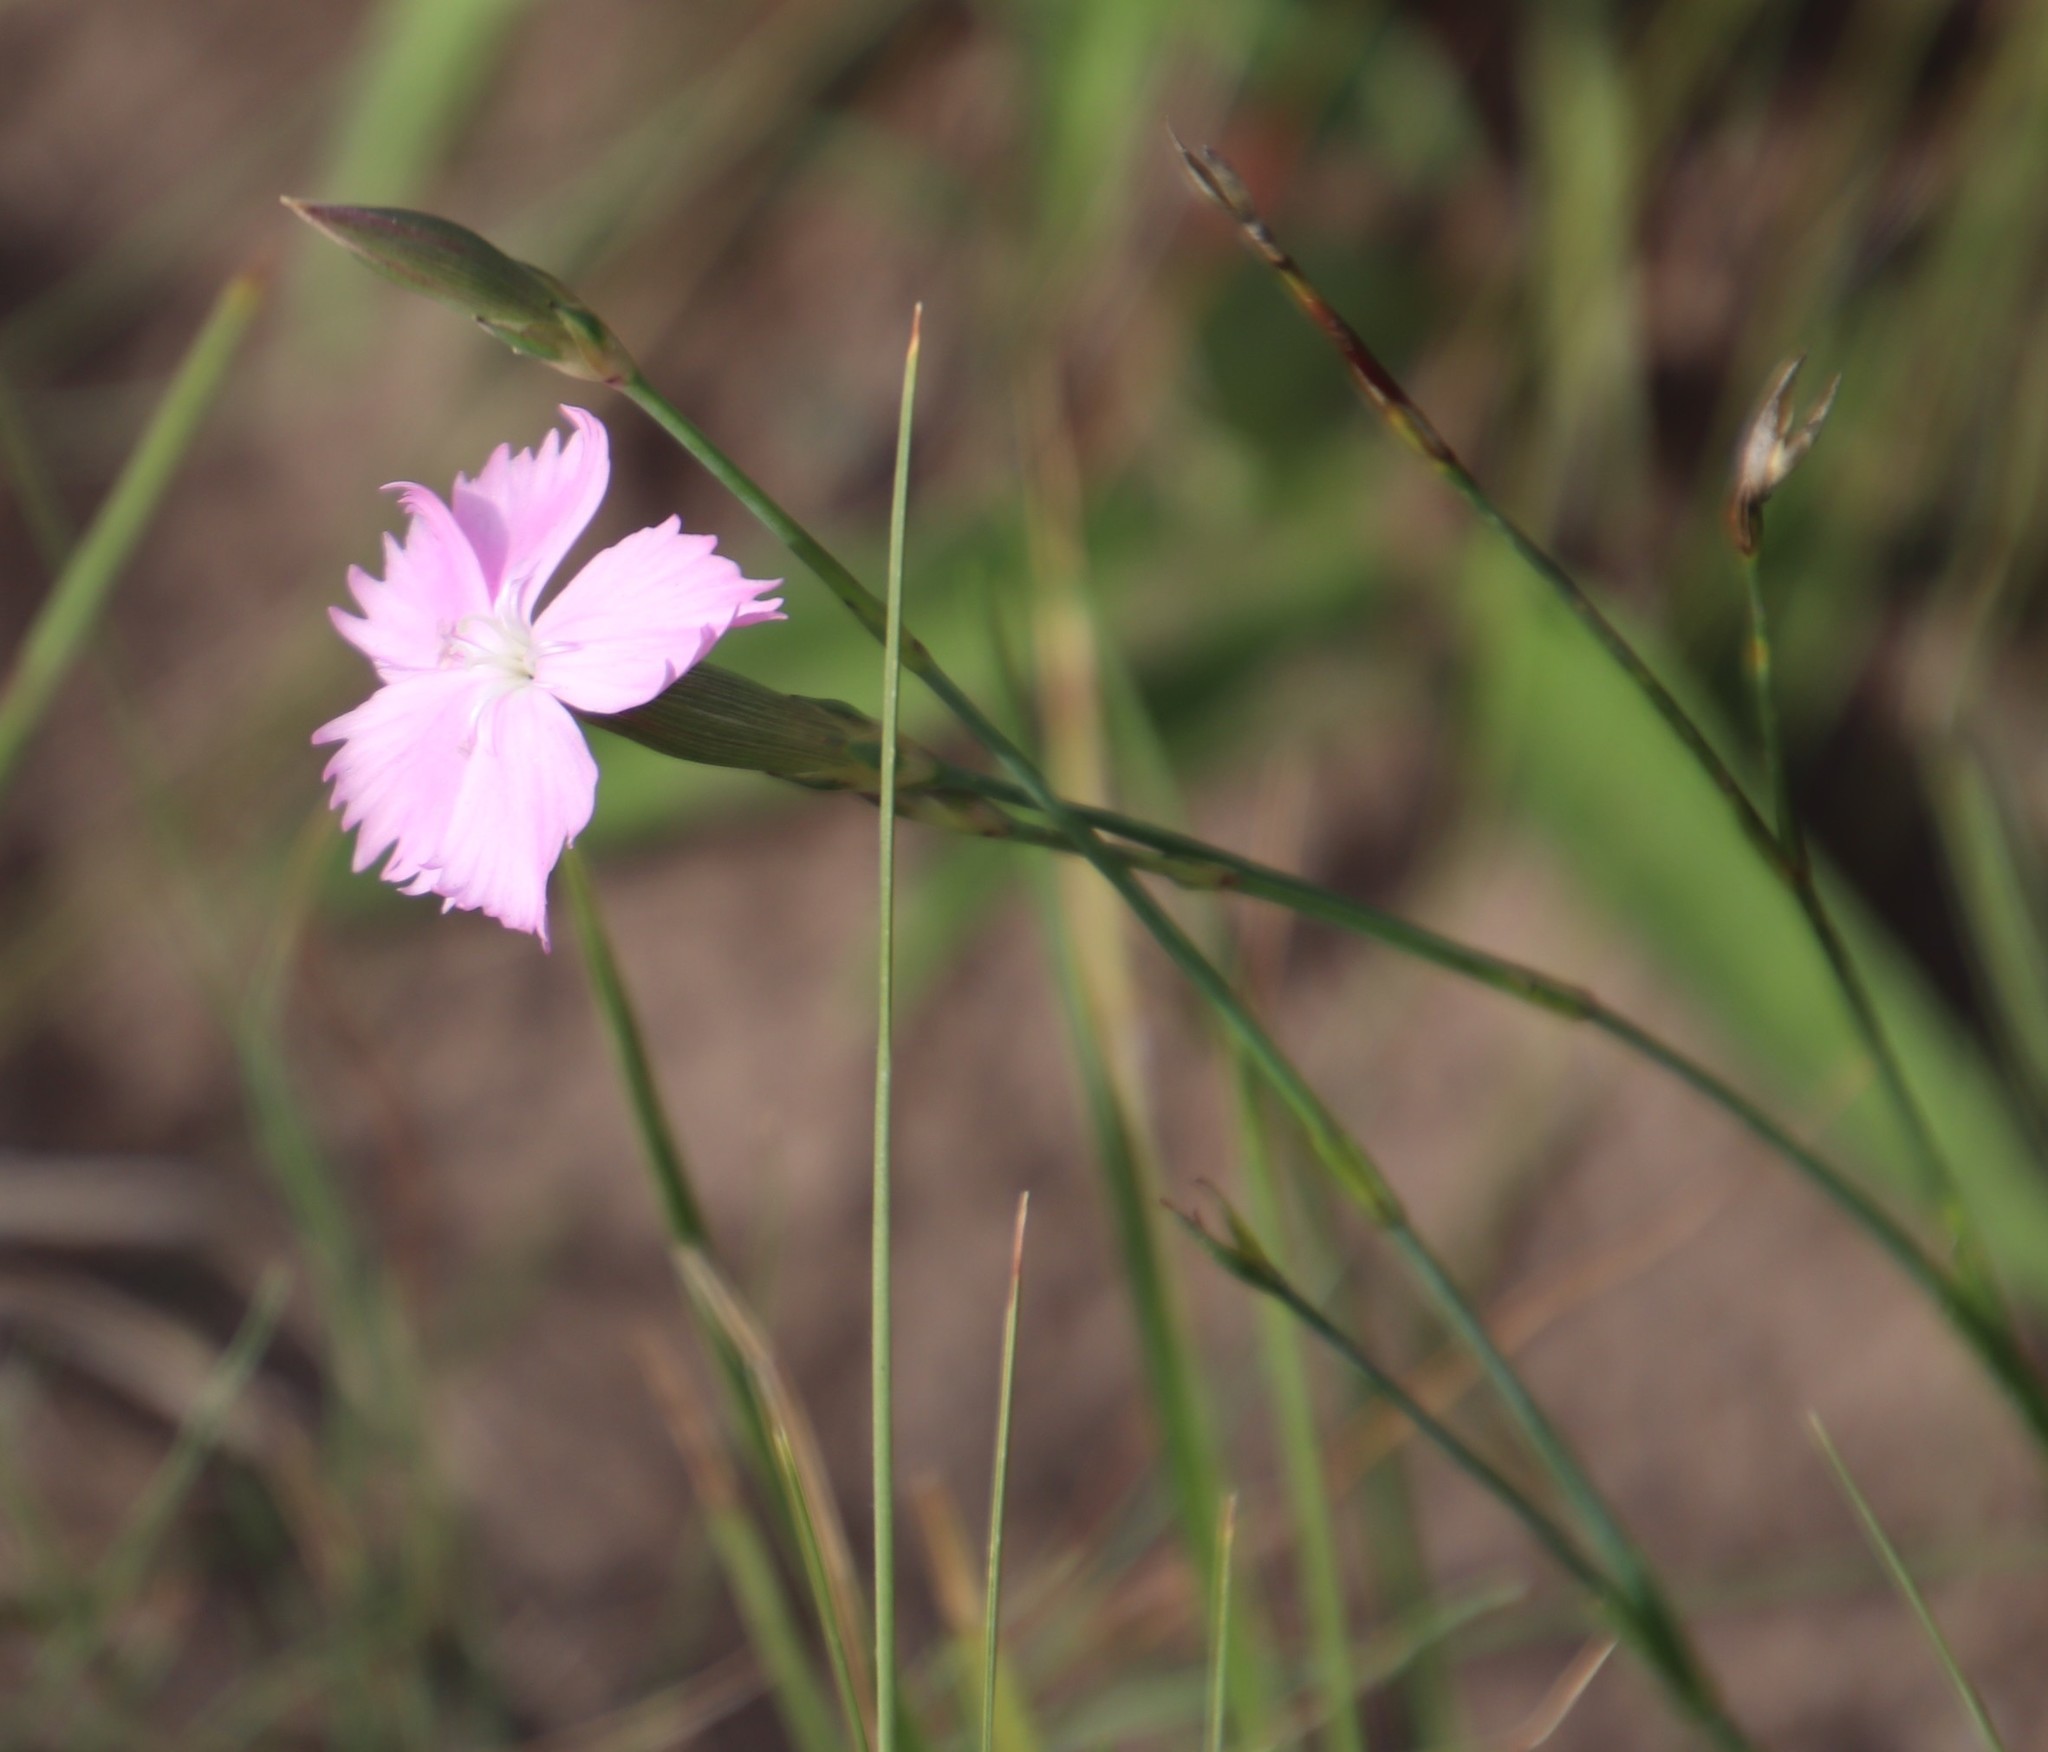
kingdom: Plantae
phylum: Tracheophyta
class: Magnoliopsida
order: Caryophyllales
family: Caryophyllaceae
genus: Dianthus
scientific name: Dianthus basuticus
